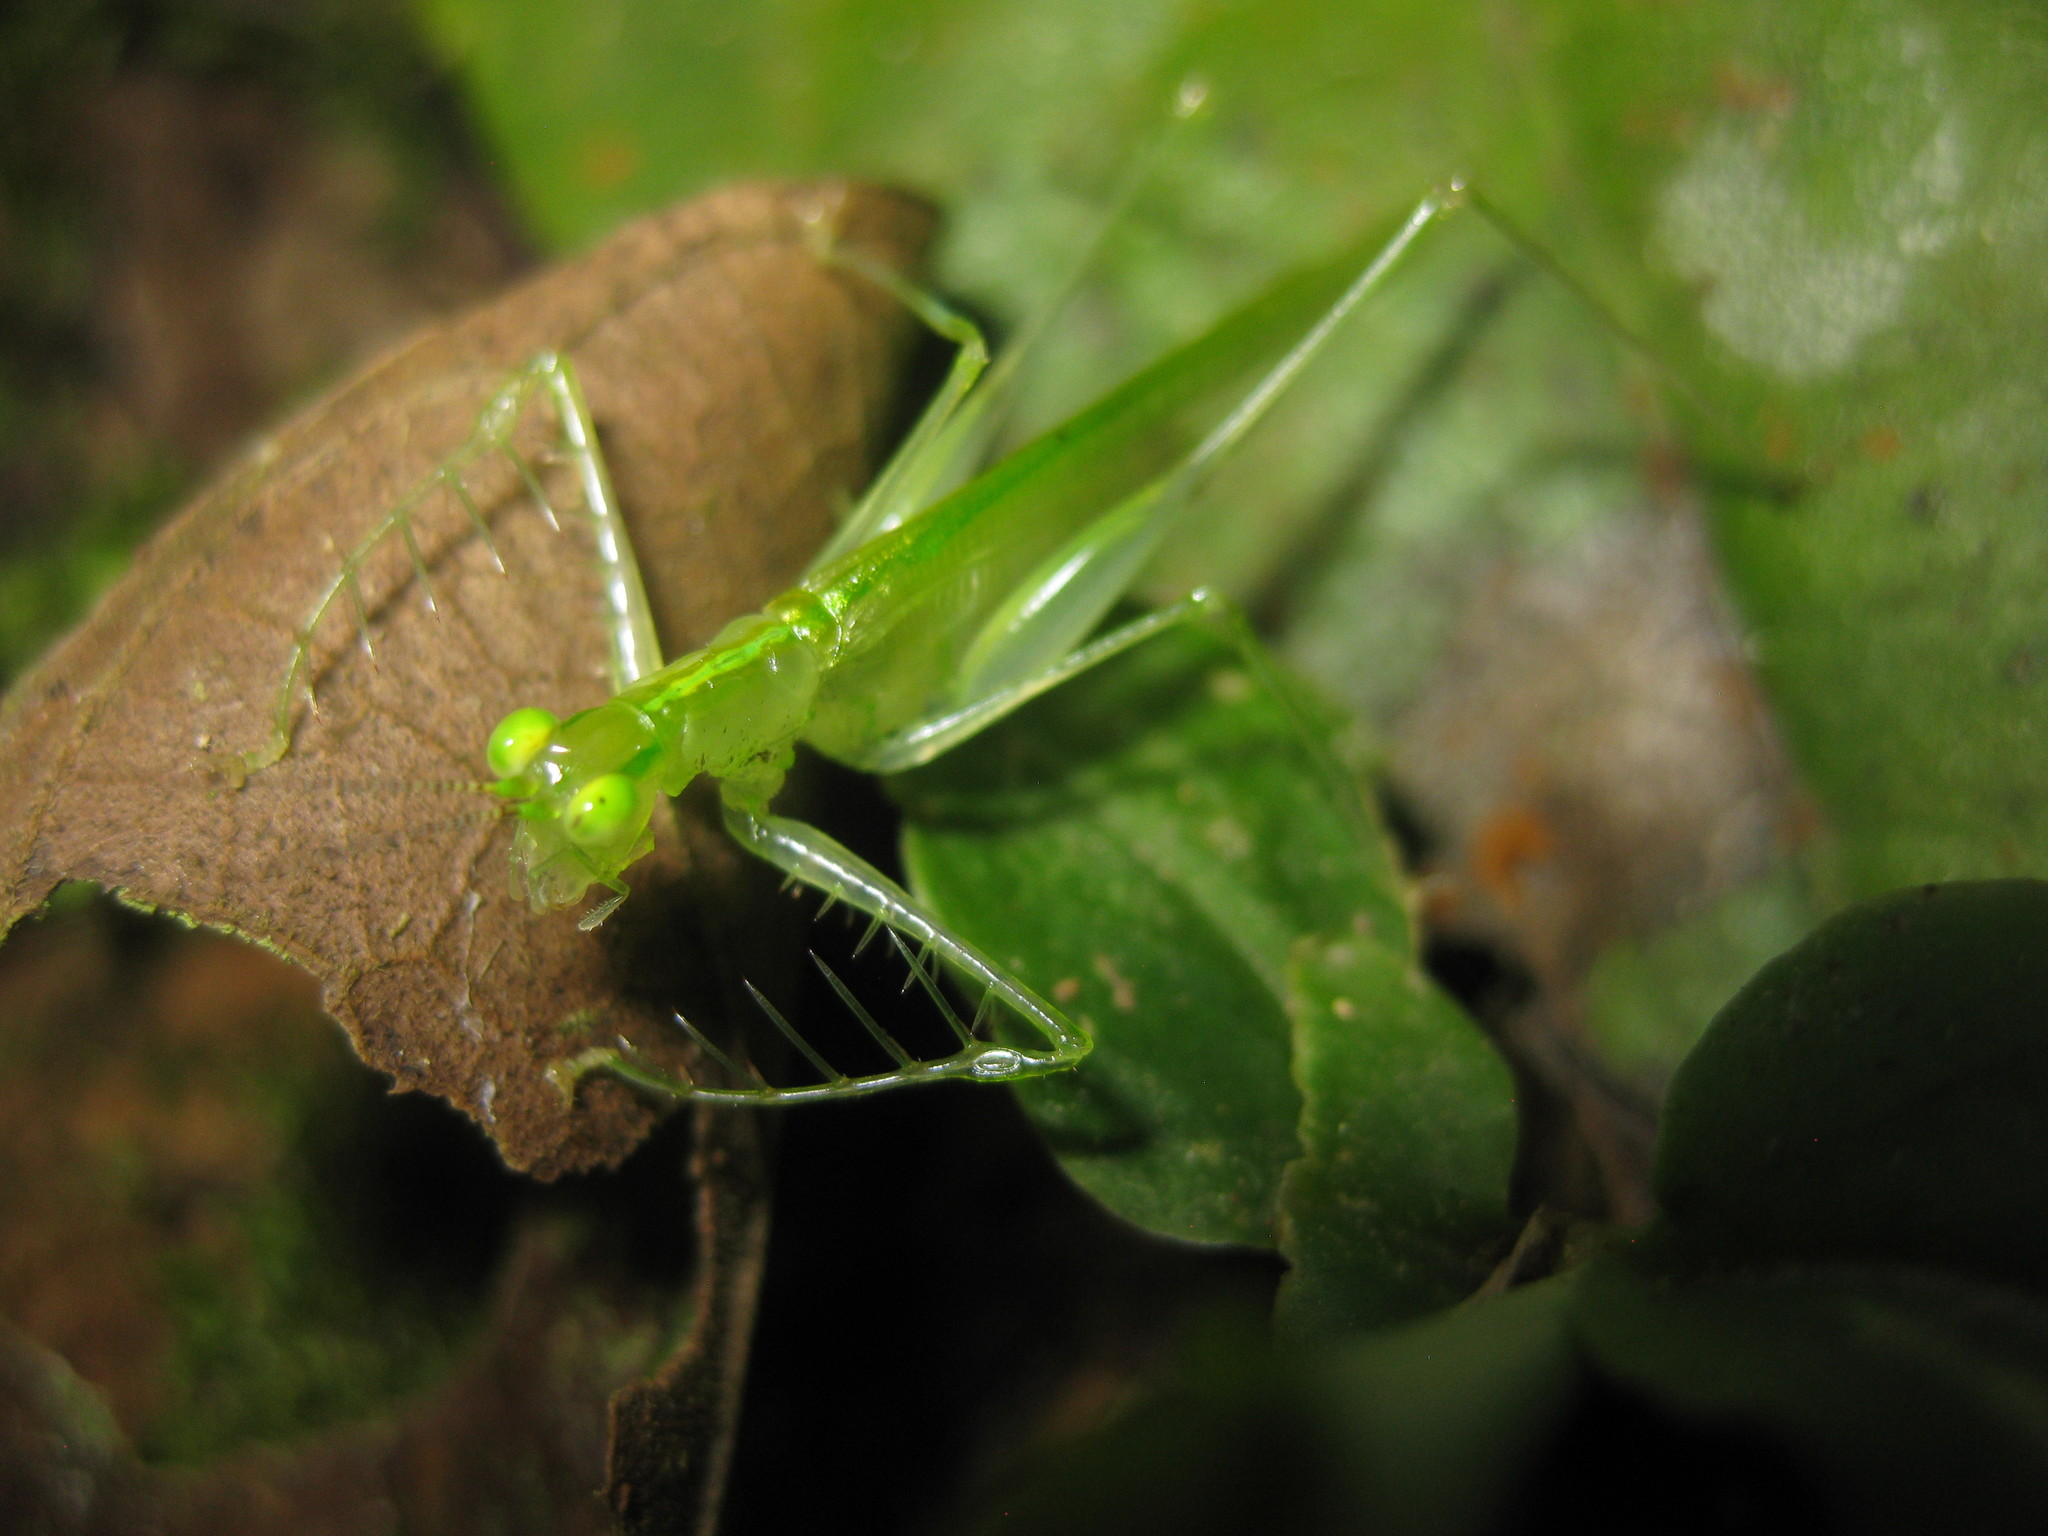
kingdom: Animalia
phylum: Arthropoda
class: Insecta
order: Orthoptera
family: Tettigoniidae
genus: Phlugis
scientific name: Phlugis
